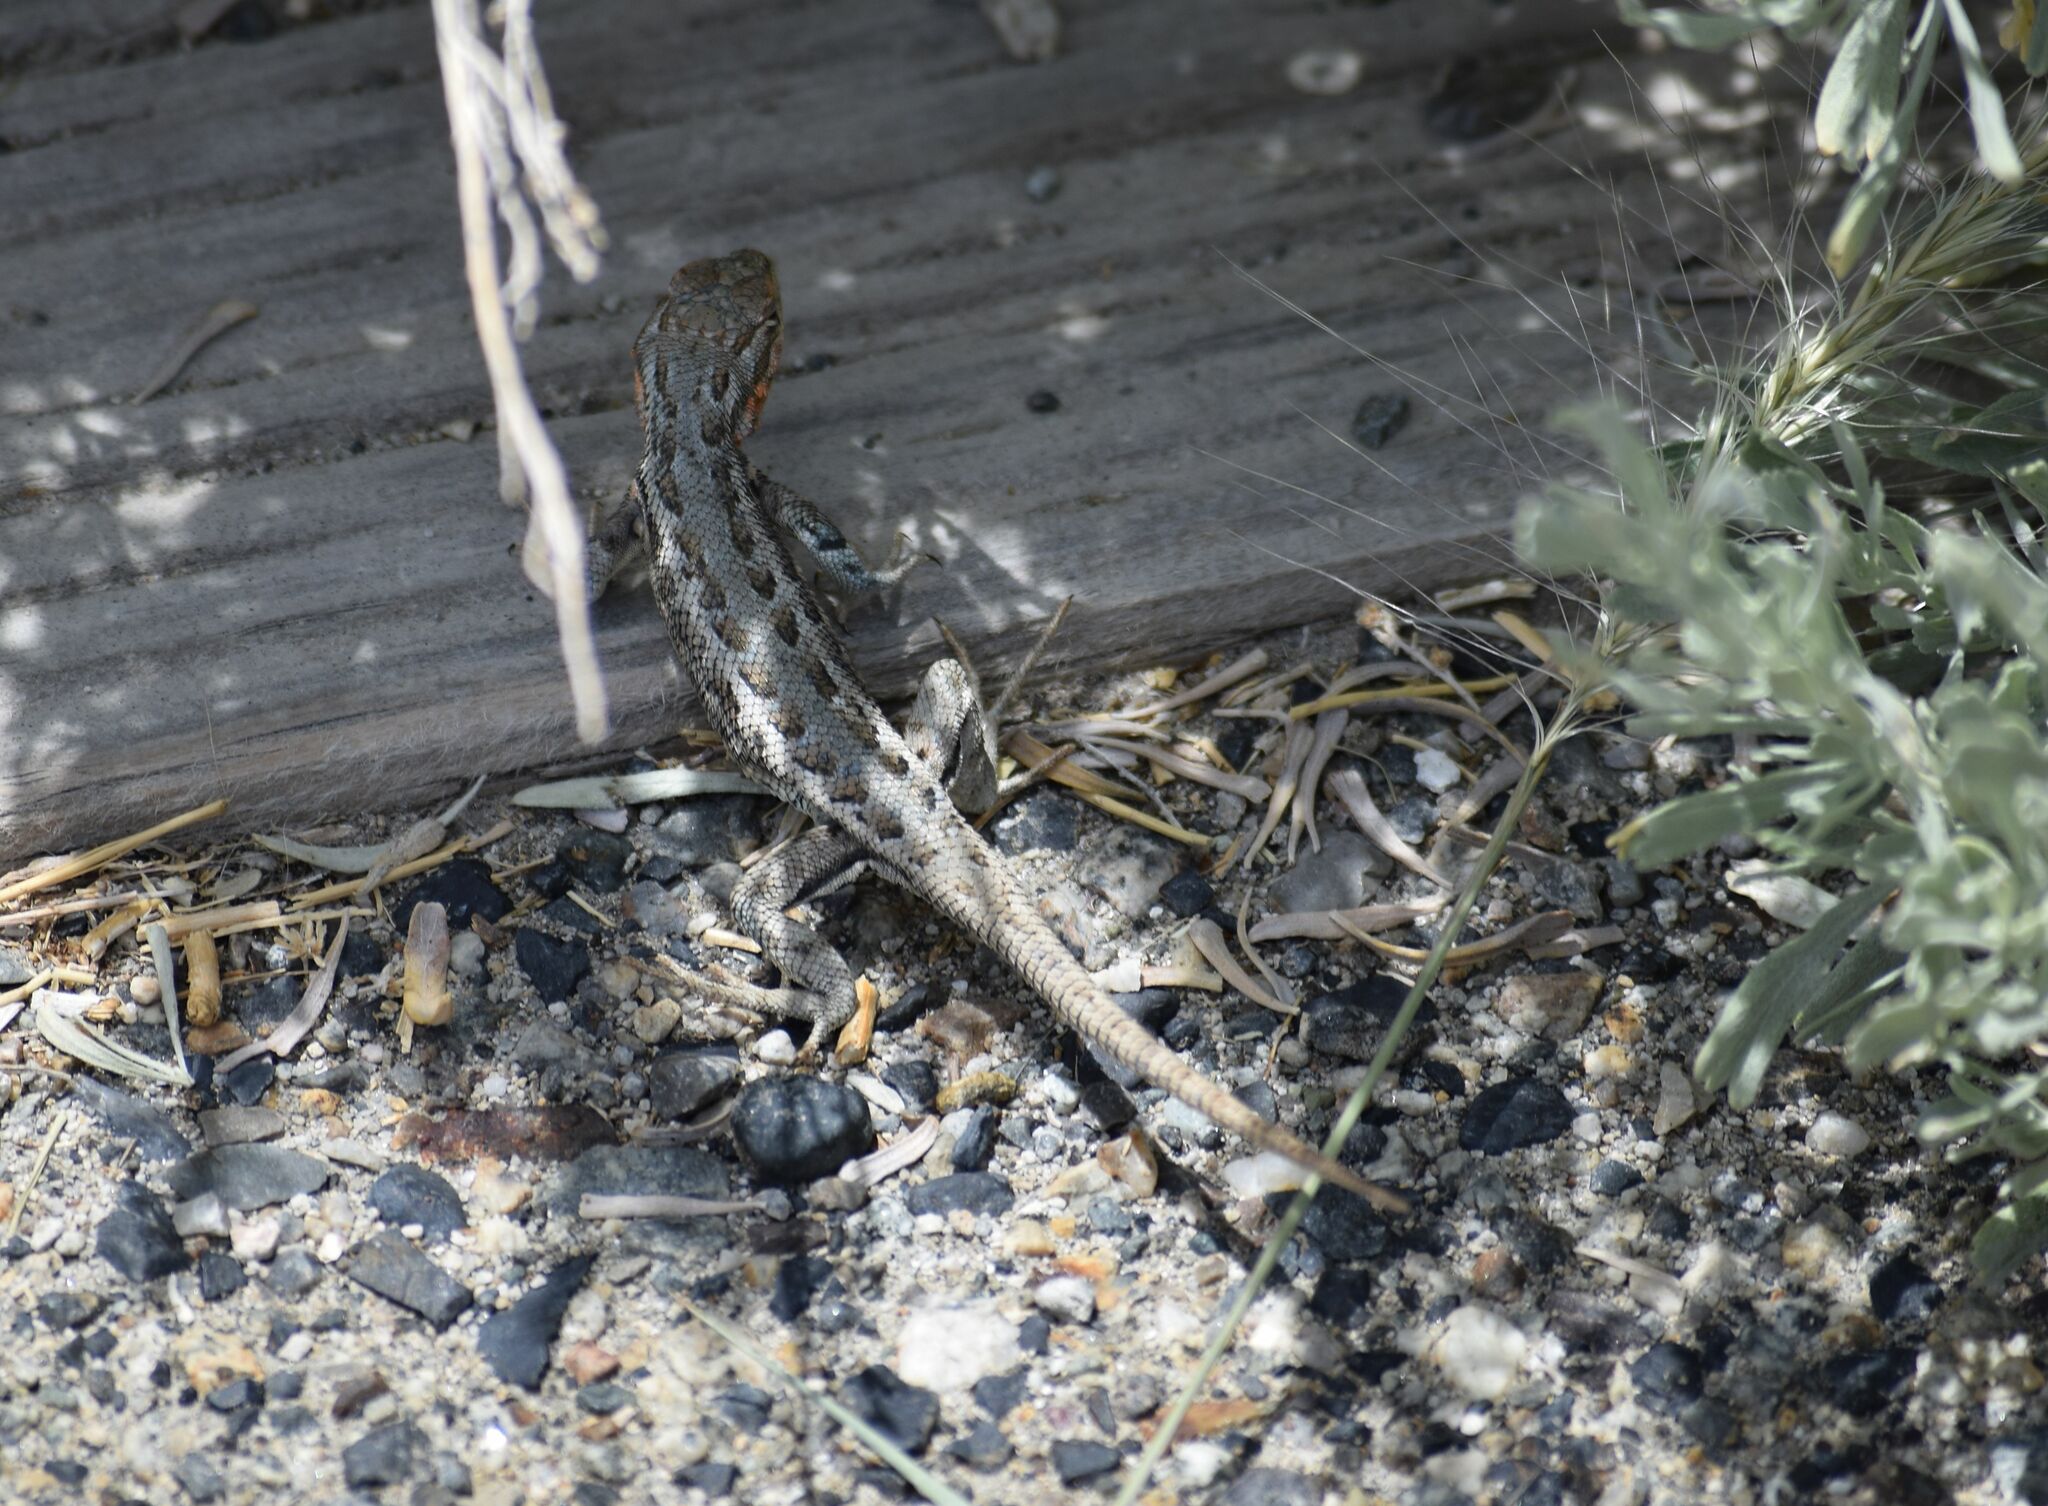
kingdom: Animalia
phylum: Chordata
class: Squamata
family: Phrynosomatidae
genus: Sceloporus
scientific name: Sceloporus graciosus
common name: Sagebrush lizard
